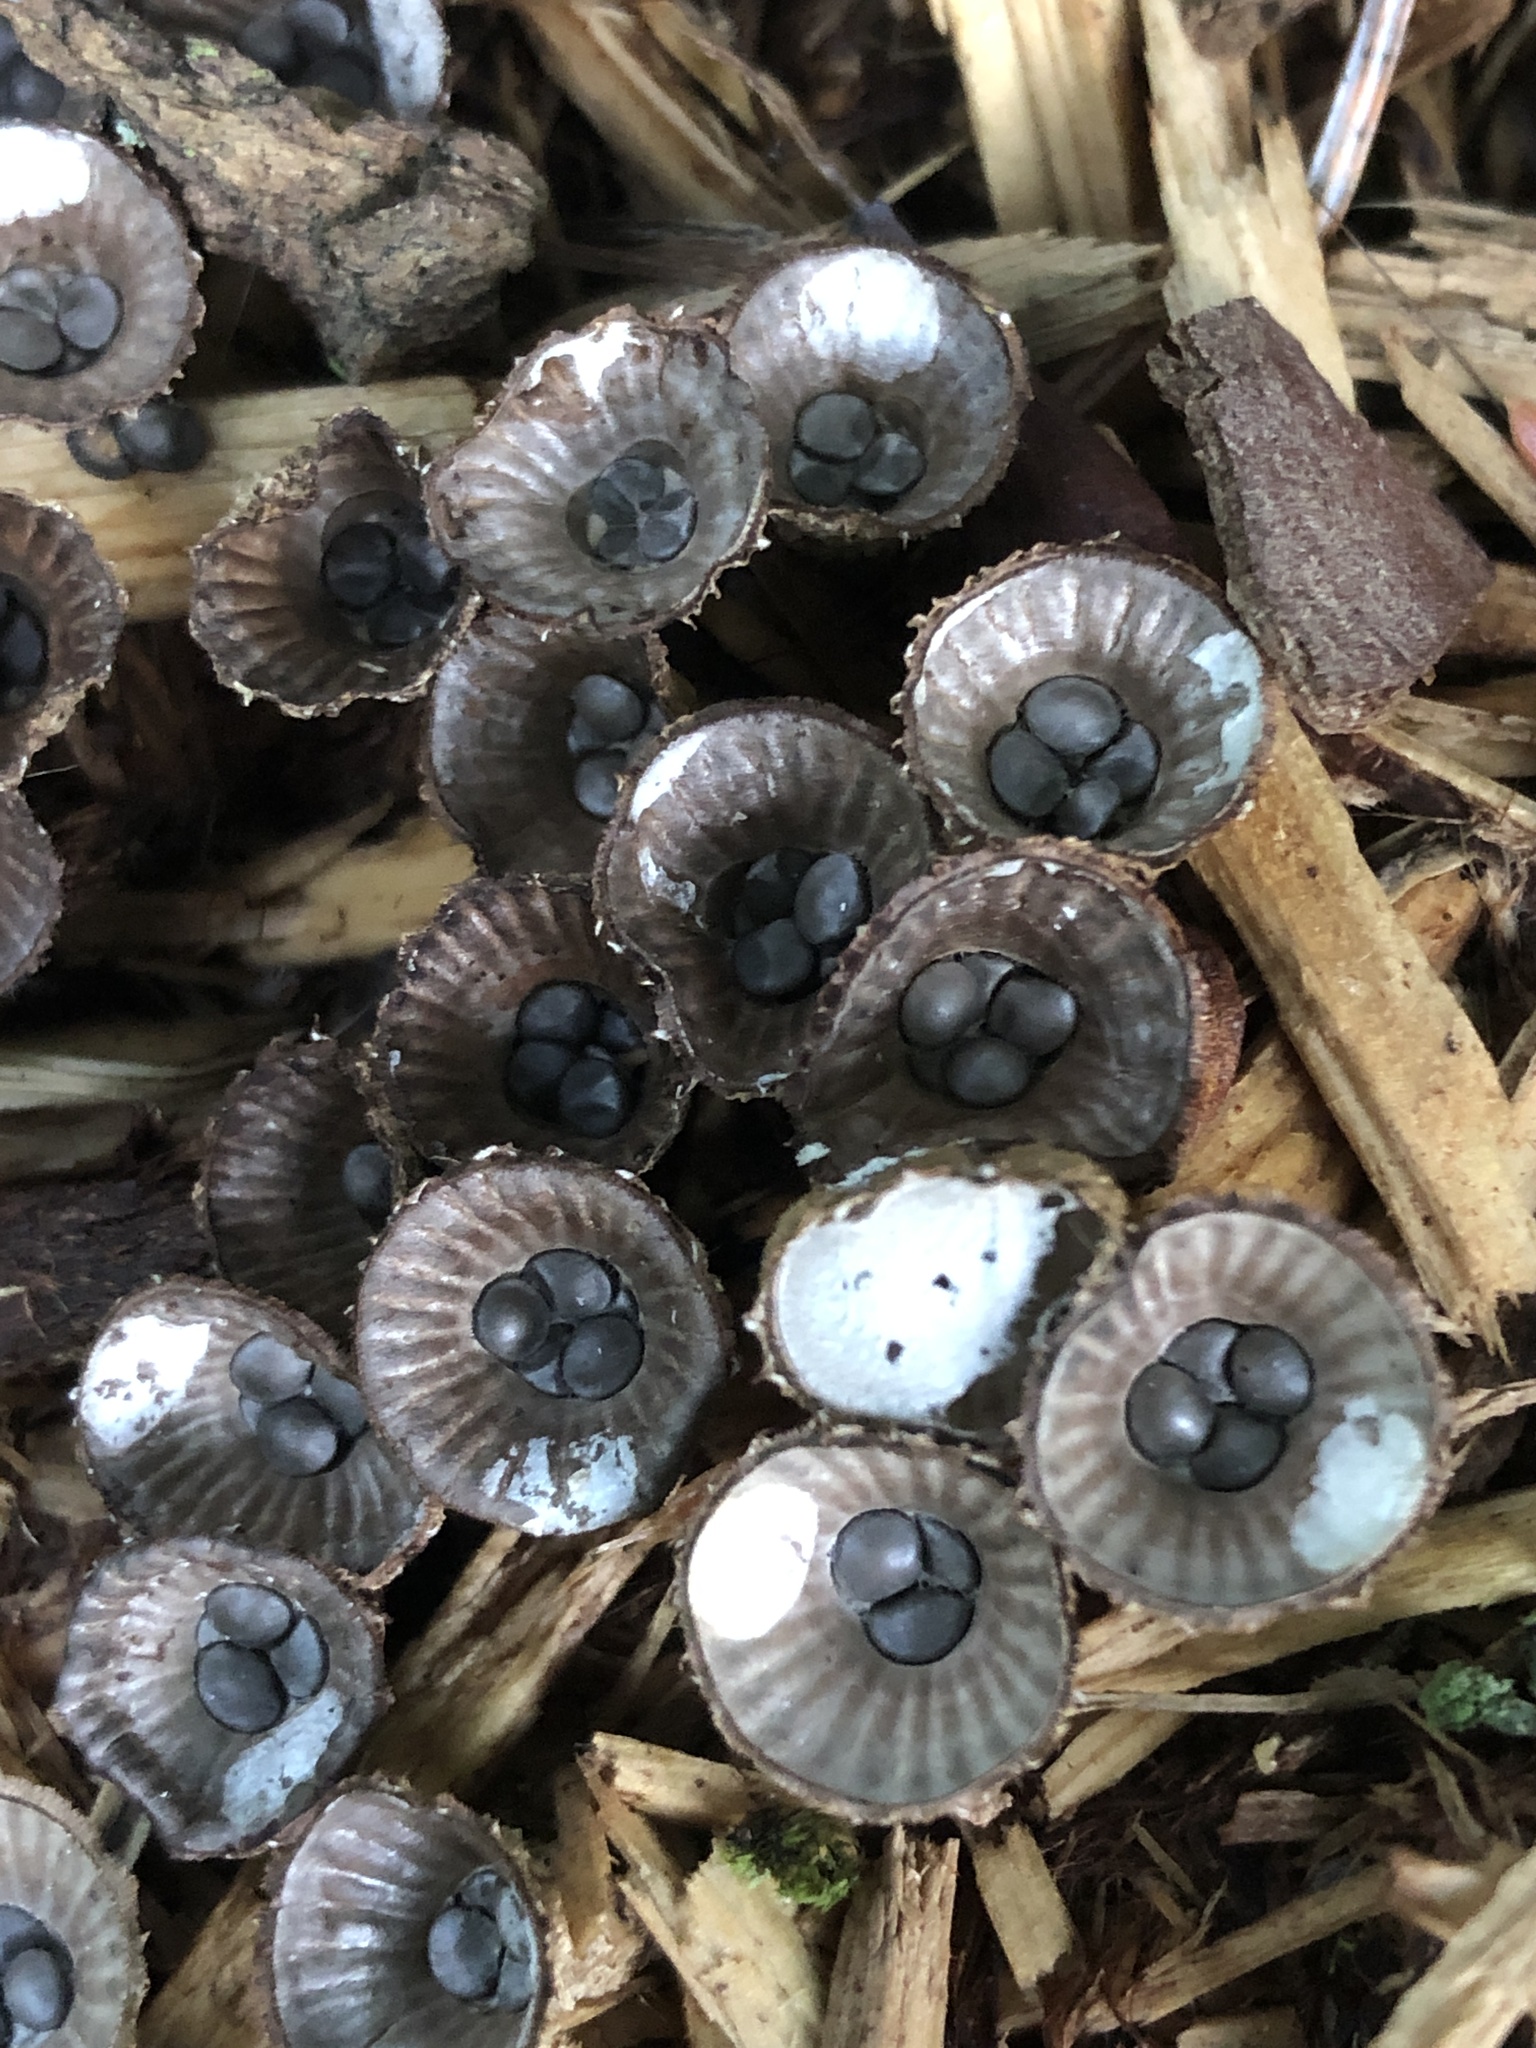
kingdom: Fungi
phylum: Basidiomycota
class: Agaricomycetes
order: Agaricales
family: Agaricaceae
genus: Cyathus
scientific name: Cyathus striatus
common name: Fluted bird's nest
